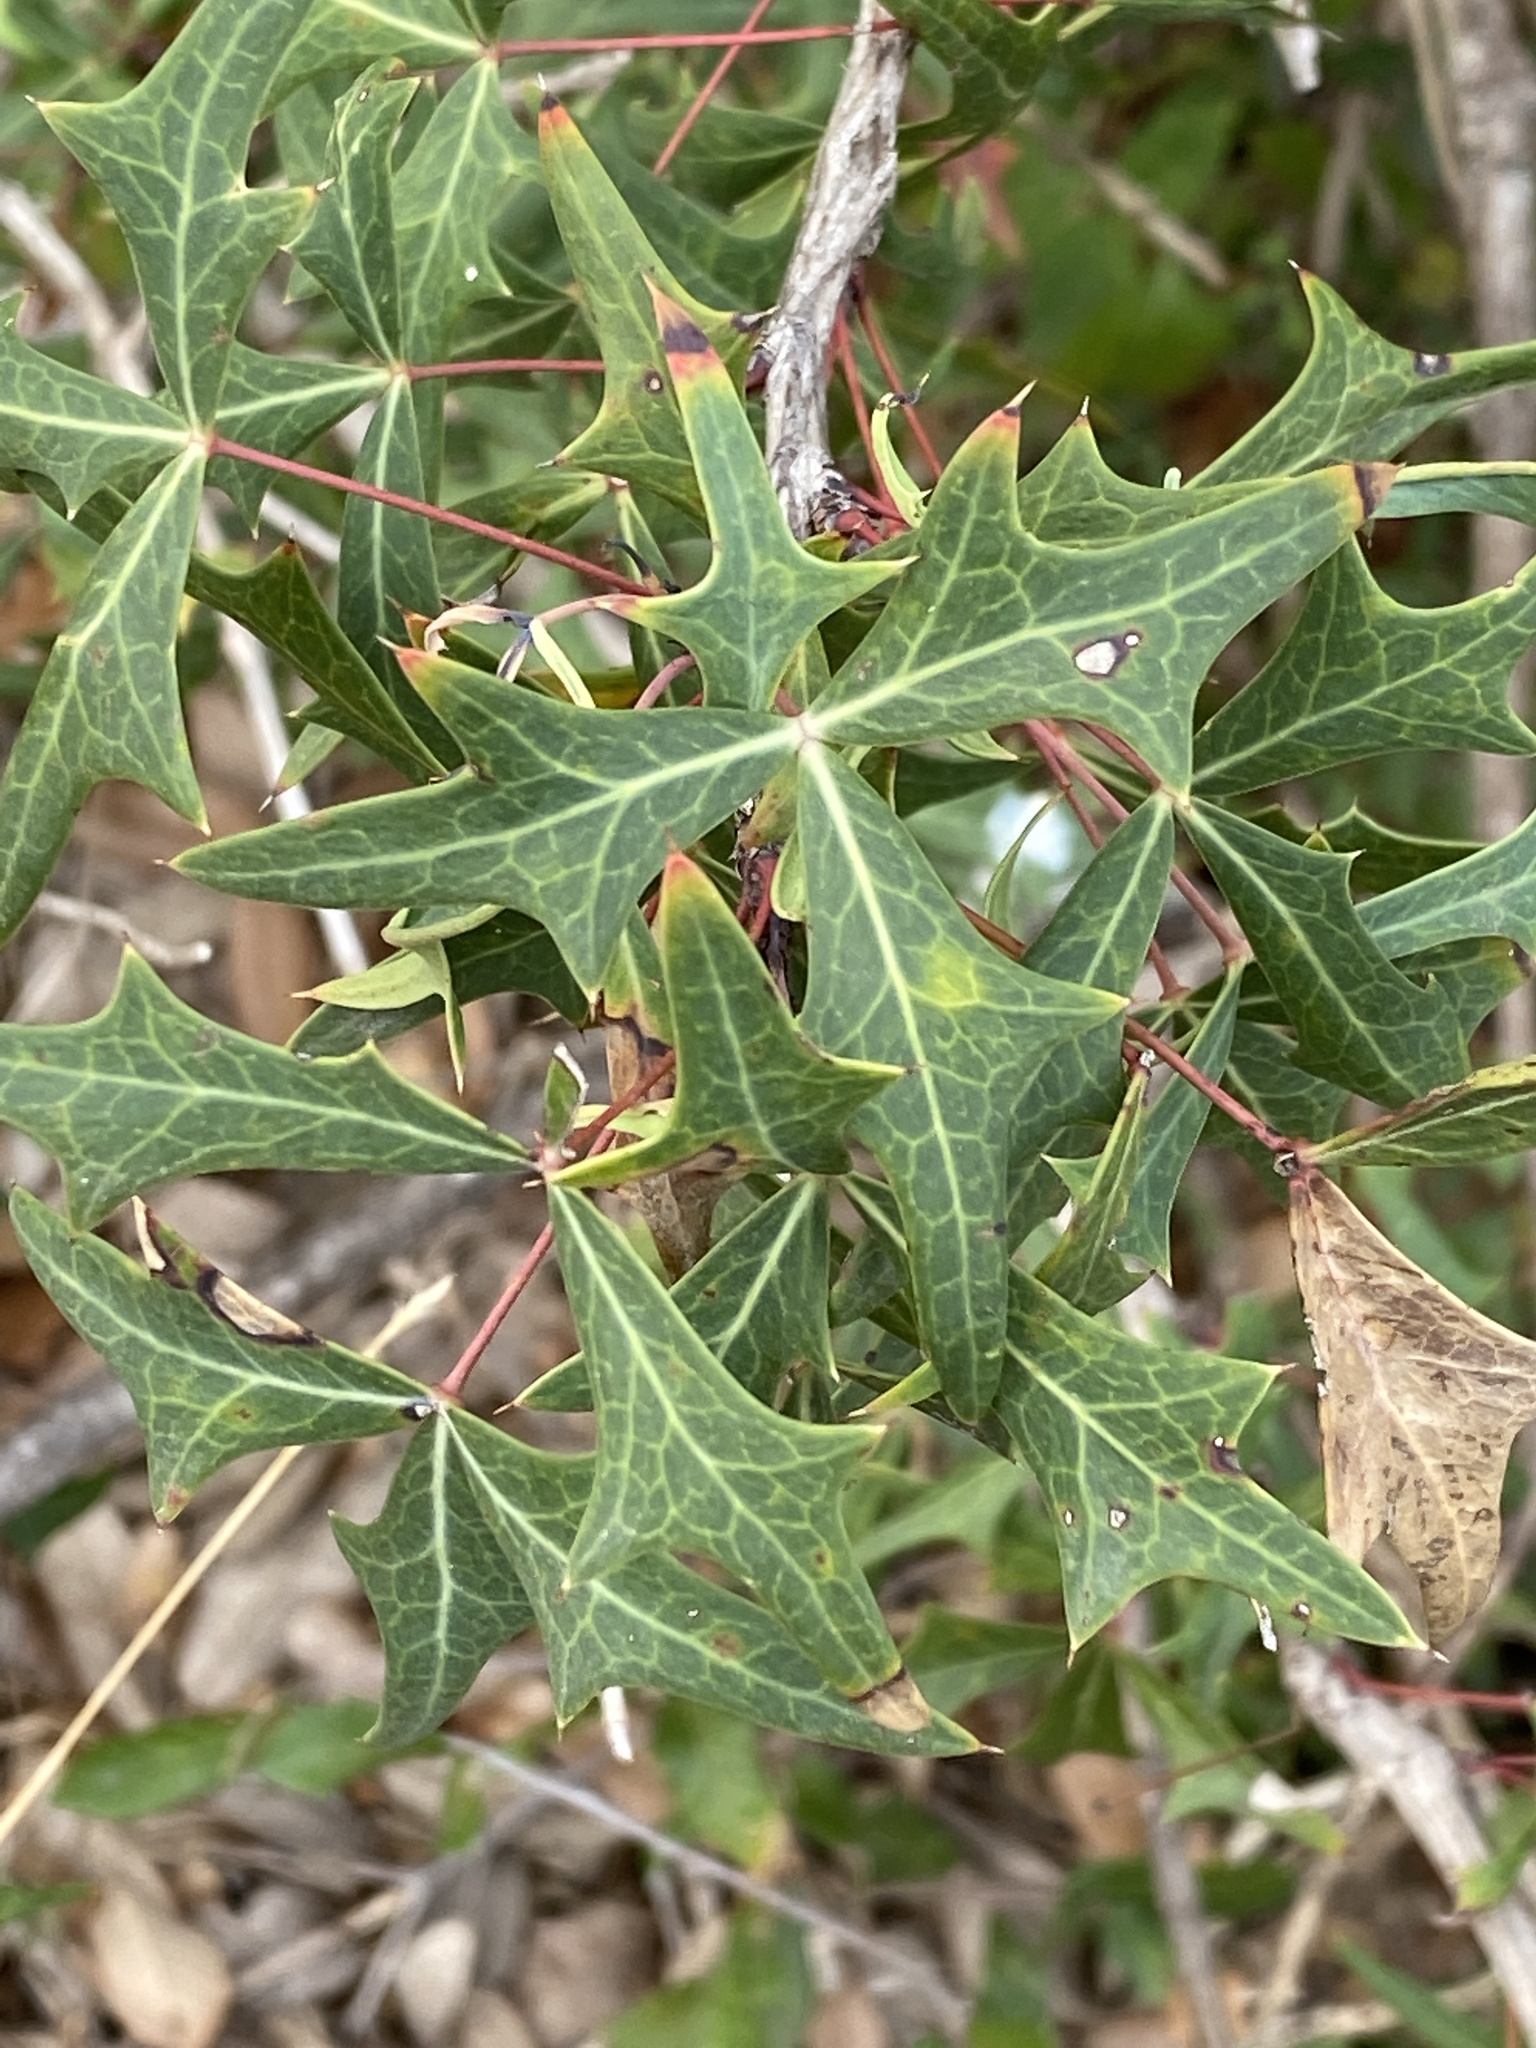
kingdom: Plantae
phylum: Tracheophyta
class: Magnoliopsida
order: Ranunculales
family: Berberidaceae
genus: Alloberberis
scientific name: Alloberberis trifoliolata
